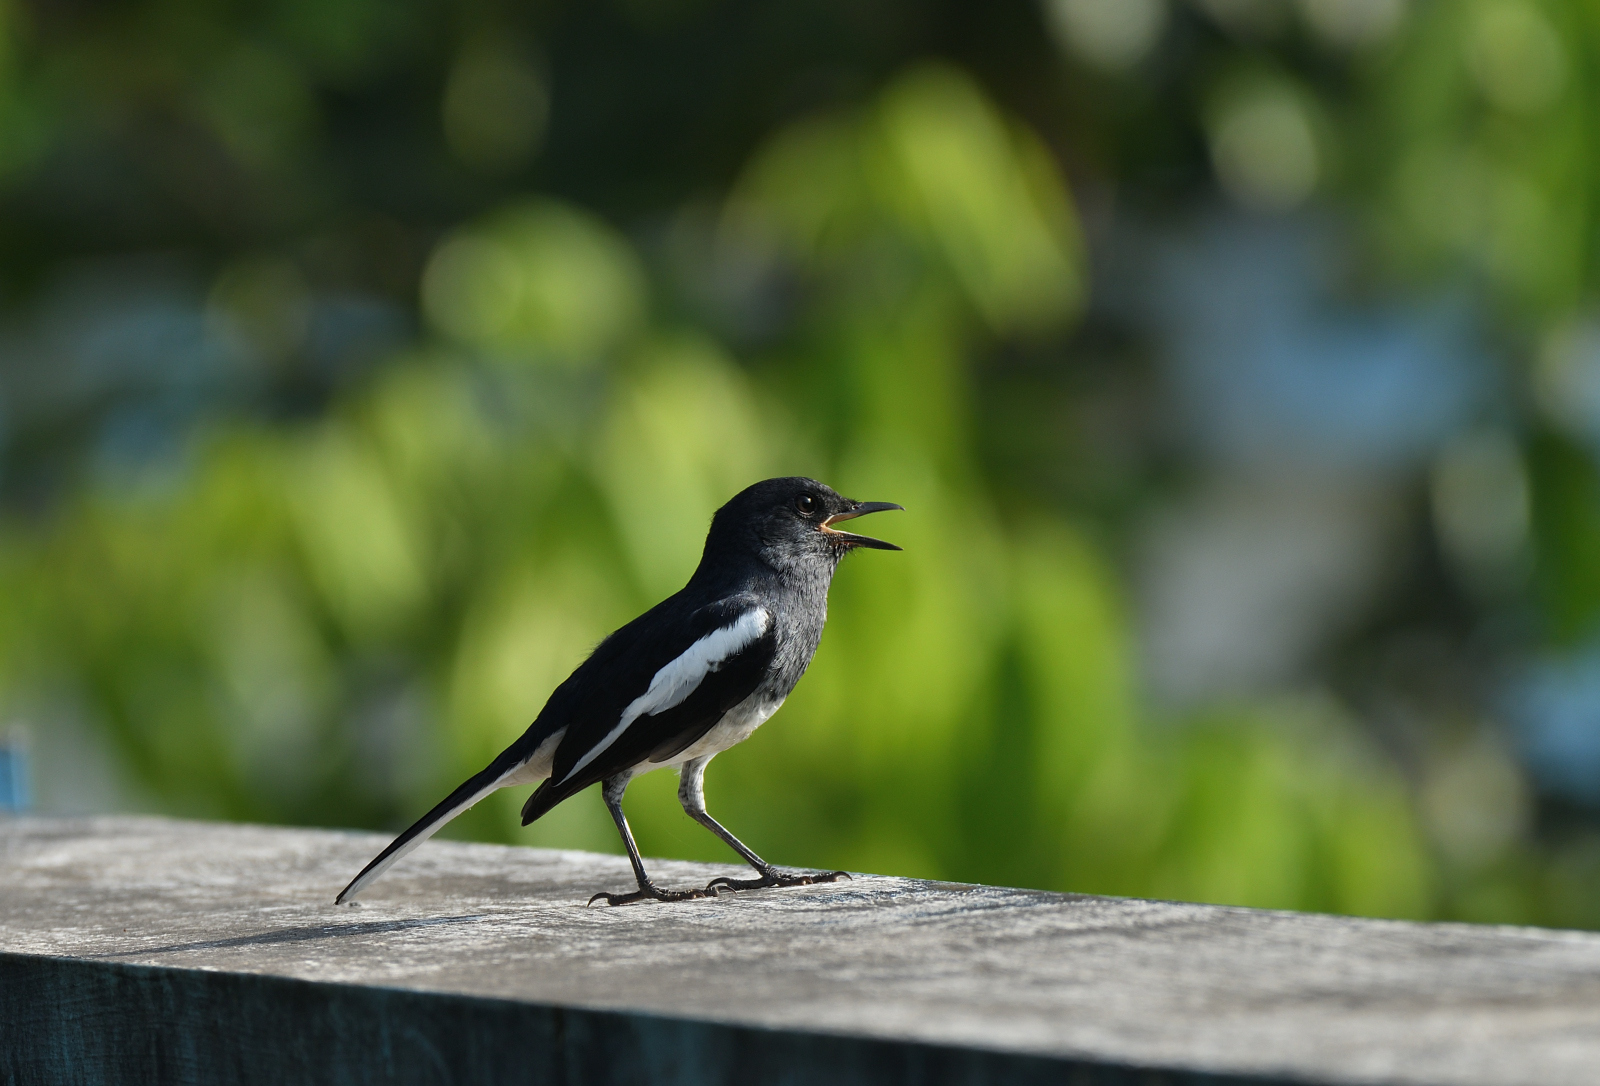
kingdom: Animalia
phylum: Chordata
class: Aves
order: Passeriformes
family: Muscicapidae
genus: Copsychus
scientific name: Copsychus saularis
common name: Oriental magpie-robin
